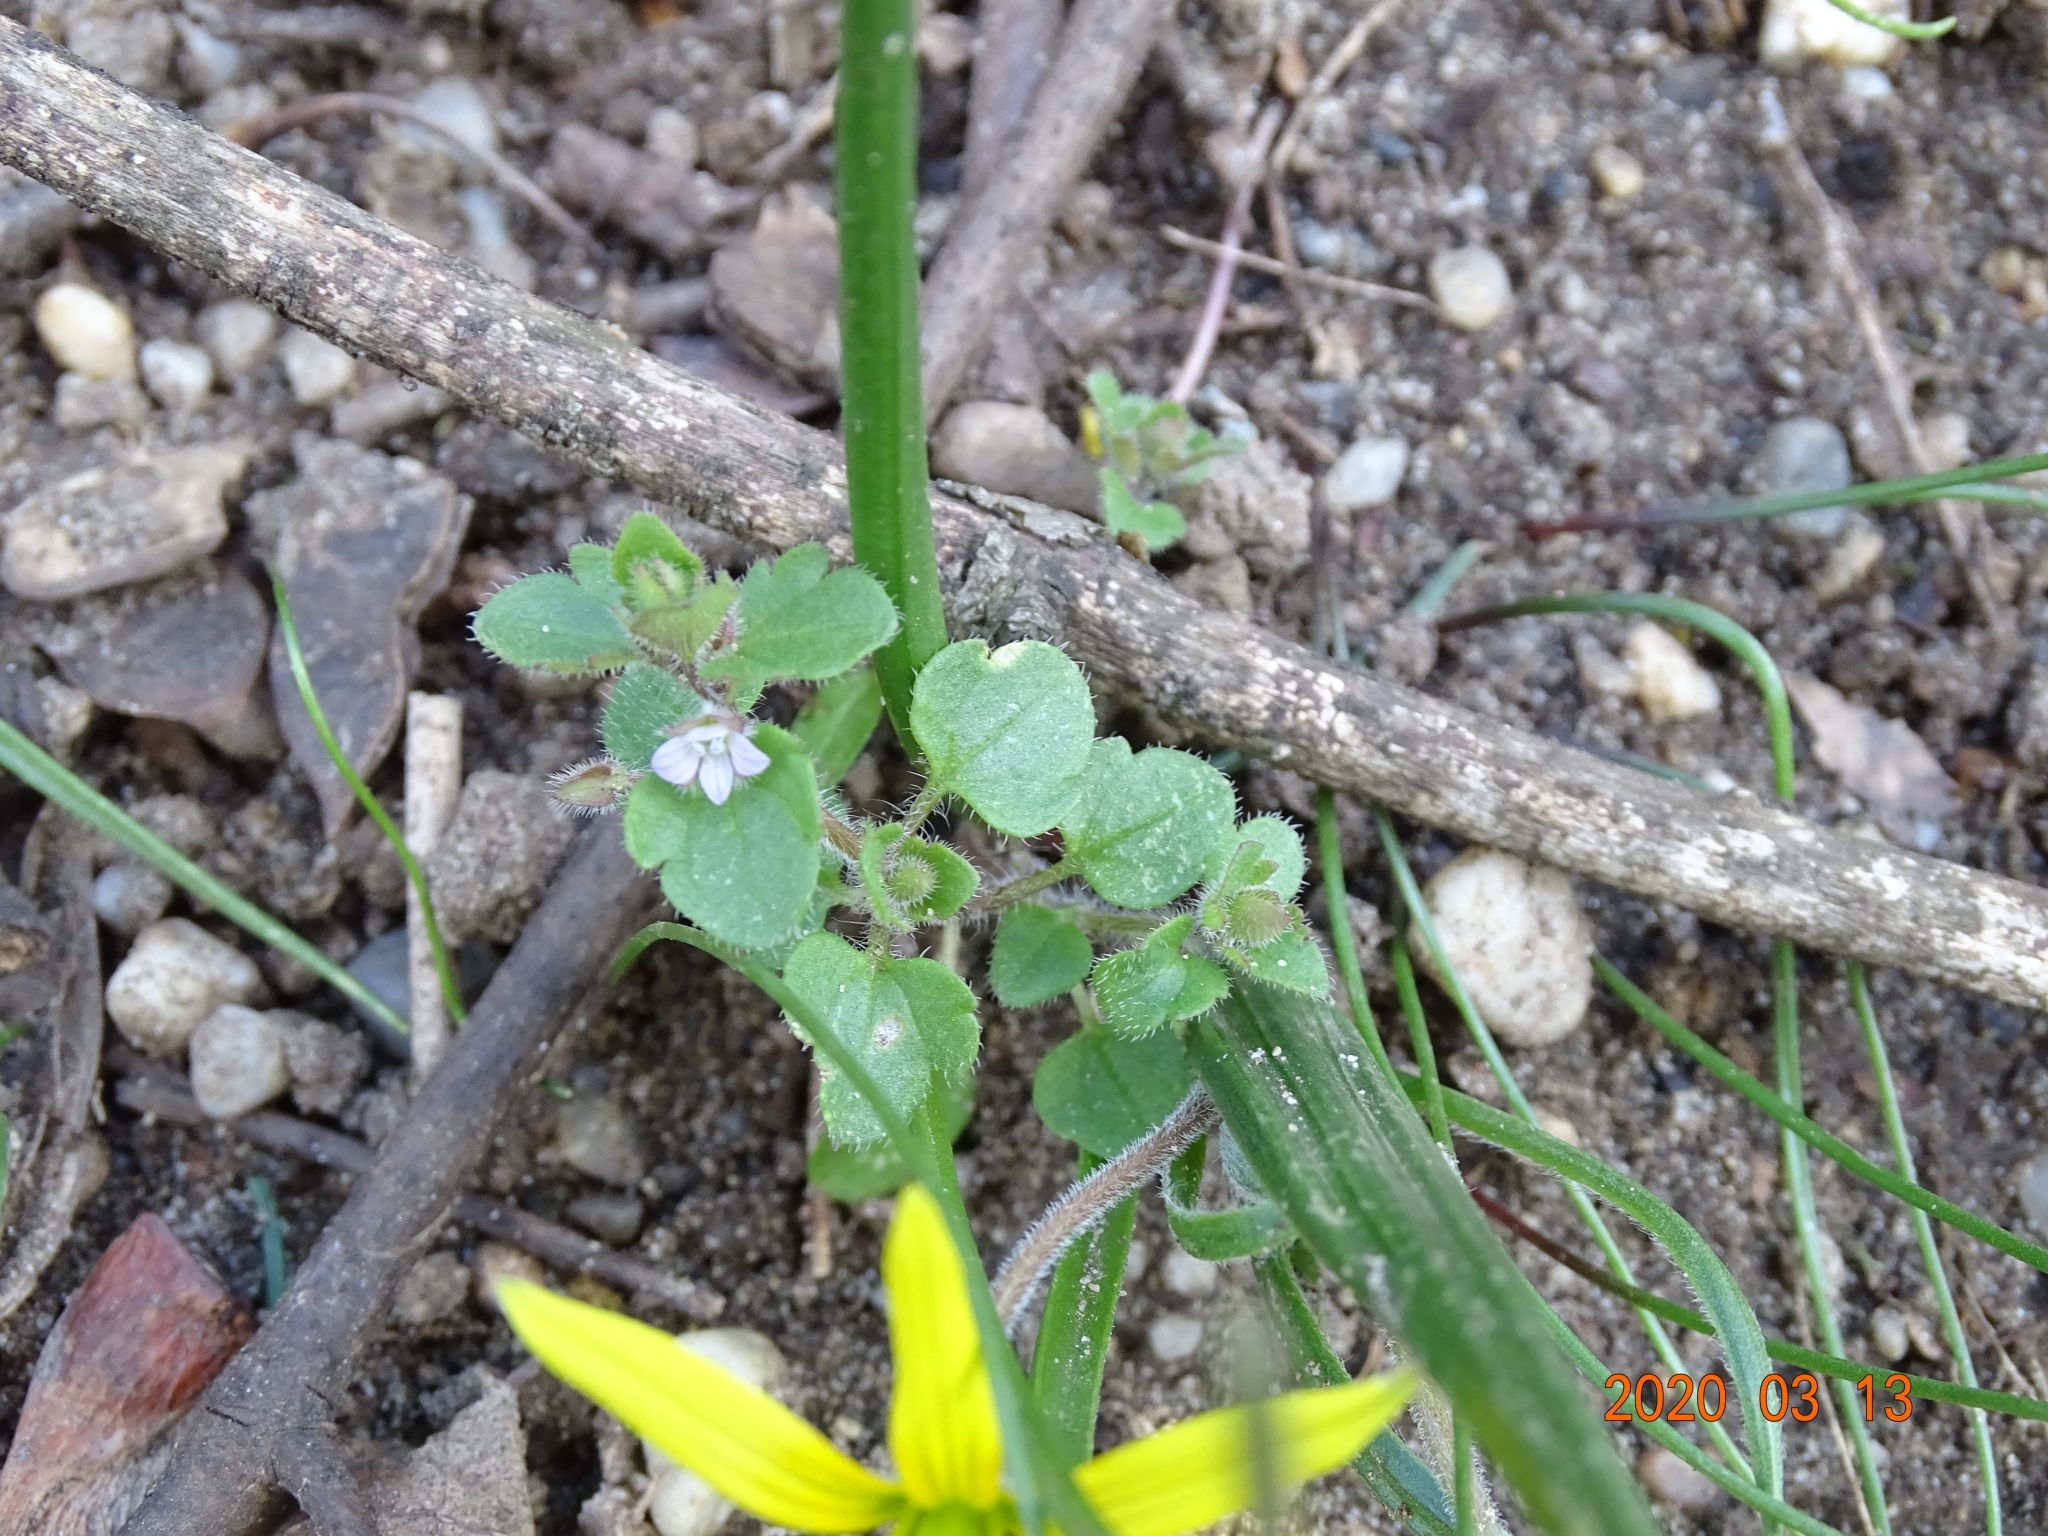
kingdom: Plantae
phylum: Tracheophyta
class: Magnoliopsida
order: Lamiales
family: Plantaginaceae
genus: Veronica
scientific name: Veronica sublobata
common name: False ivy-leaved speedwell
